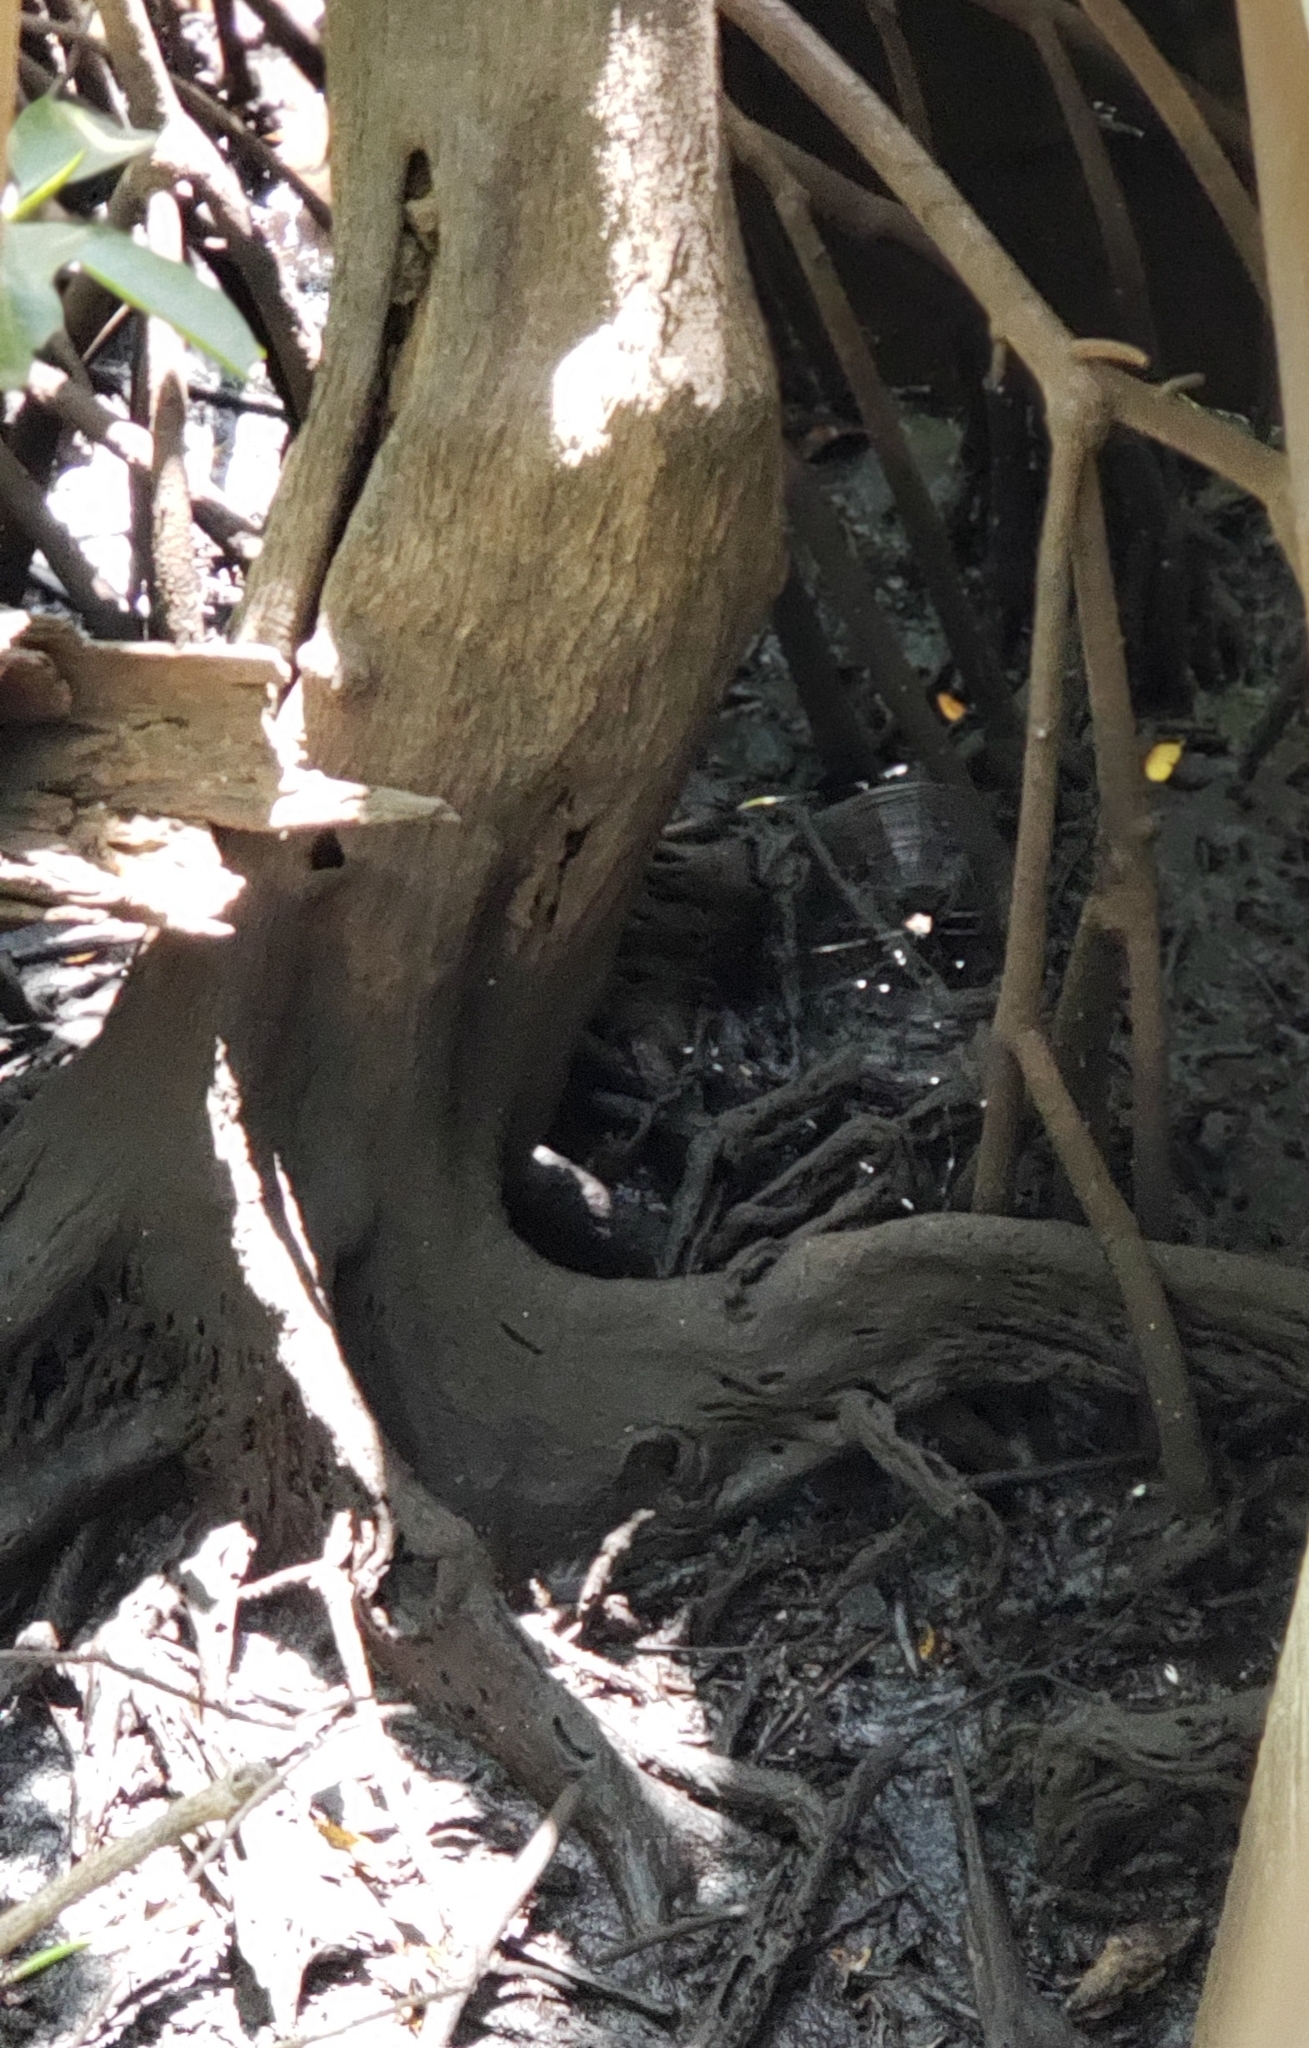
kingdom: Animalia
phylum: Arthropoda
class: Arachnida
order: Araneae
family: Araneidae
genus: Gasteracantha
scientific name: Gasteracantha cancriformis
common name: Orb weavers
